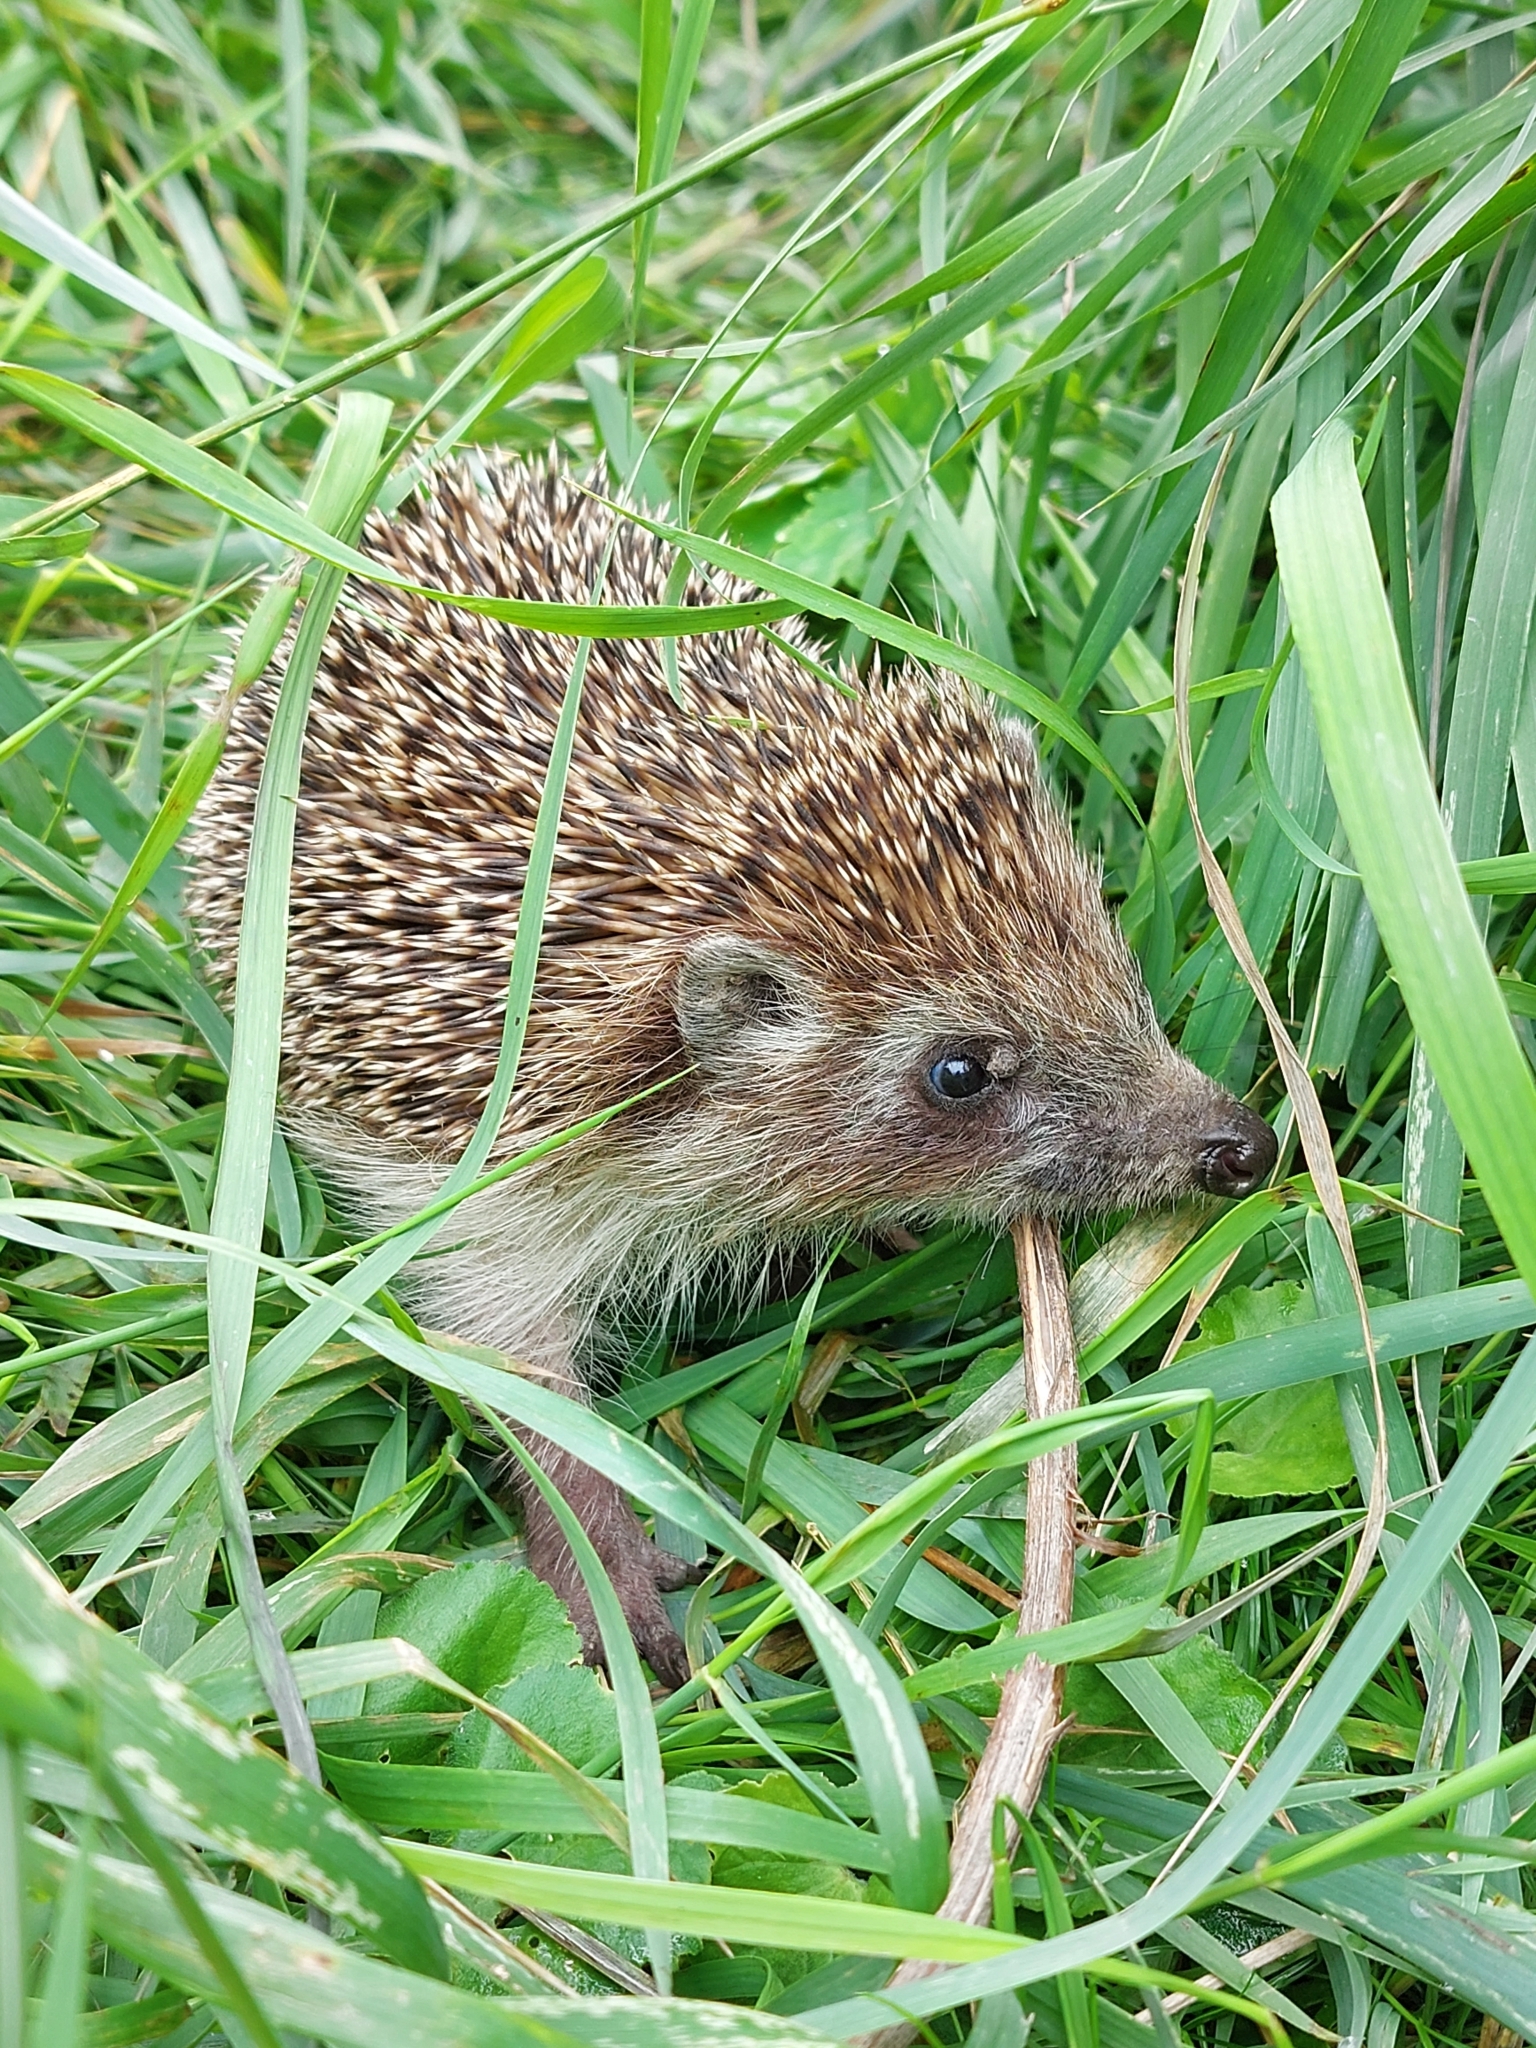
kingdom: Animalia
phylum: Chordata
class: Mammalia
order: Erinaceomorpha
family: Erinaceidae
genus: Erinaceus
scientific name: Erinaceus roumanicus
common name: Northern white-breasted hedgehog
